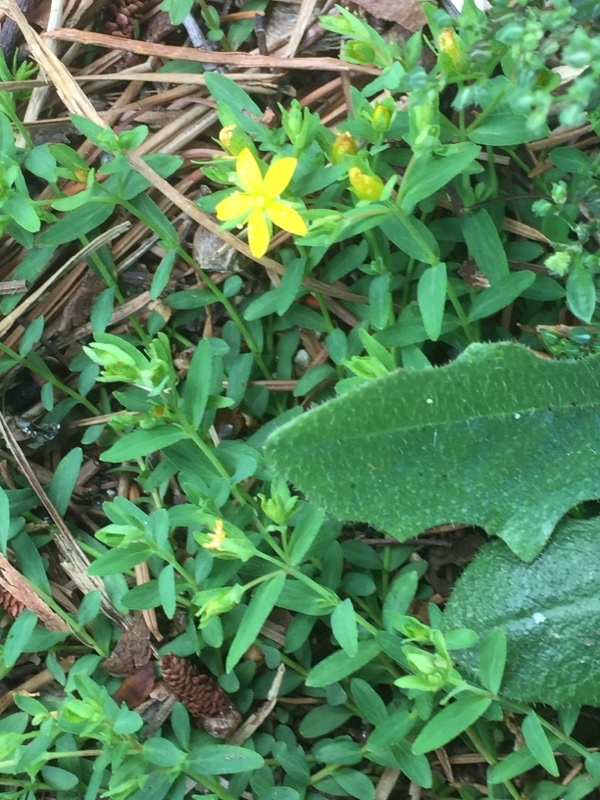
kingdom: Plantae
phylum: Tracheophyta
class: Magnoliopsida
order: Malpighiales
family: Hypericaceae
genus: Hypericum
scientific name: Hypericum humifusum
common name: Trailing st. john's-wort
